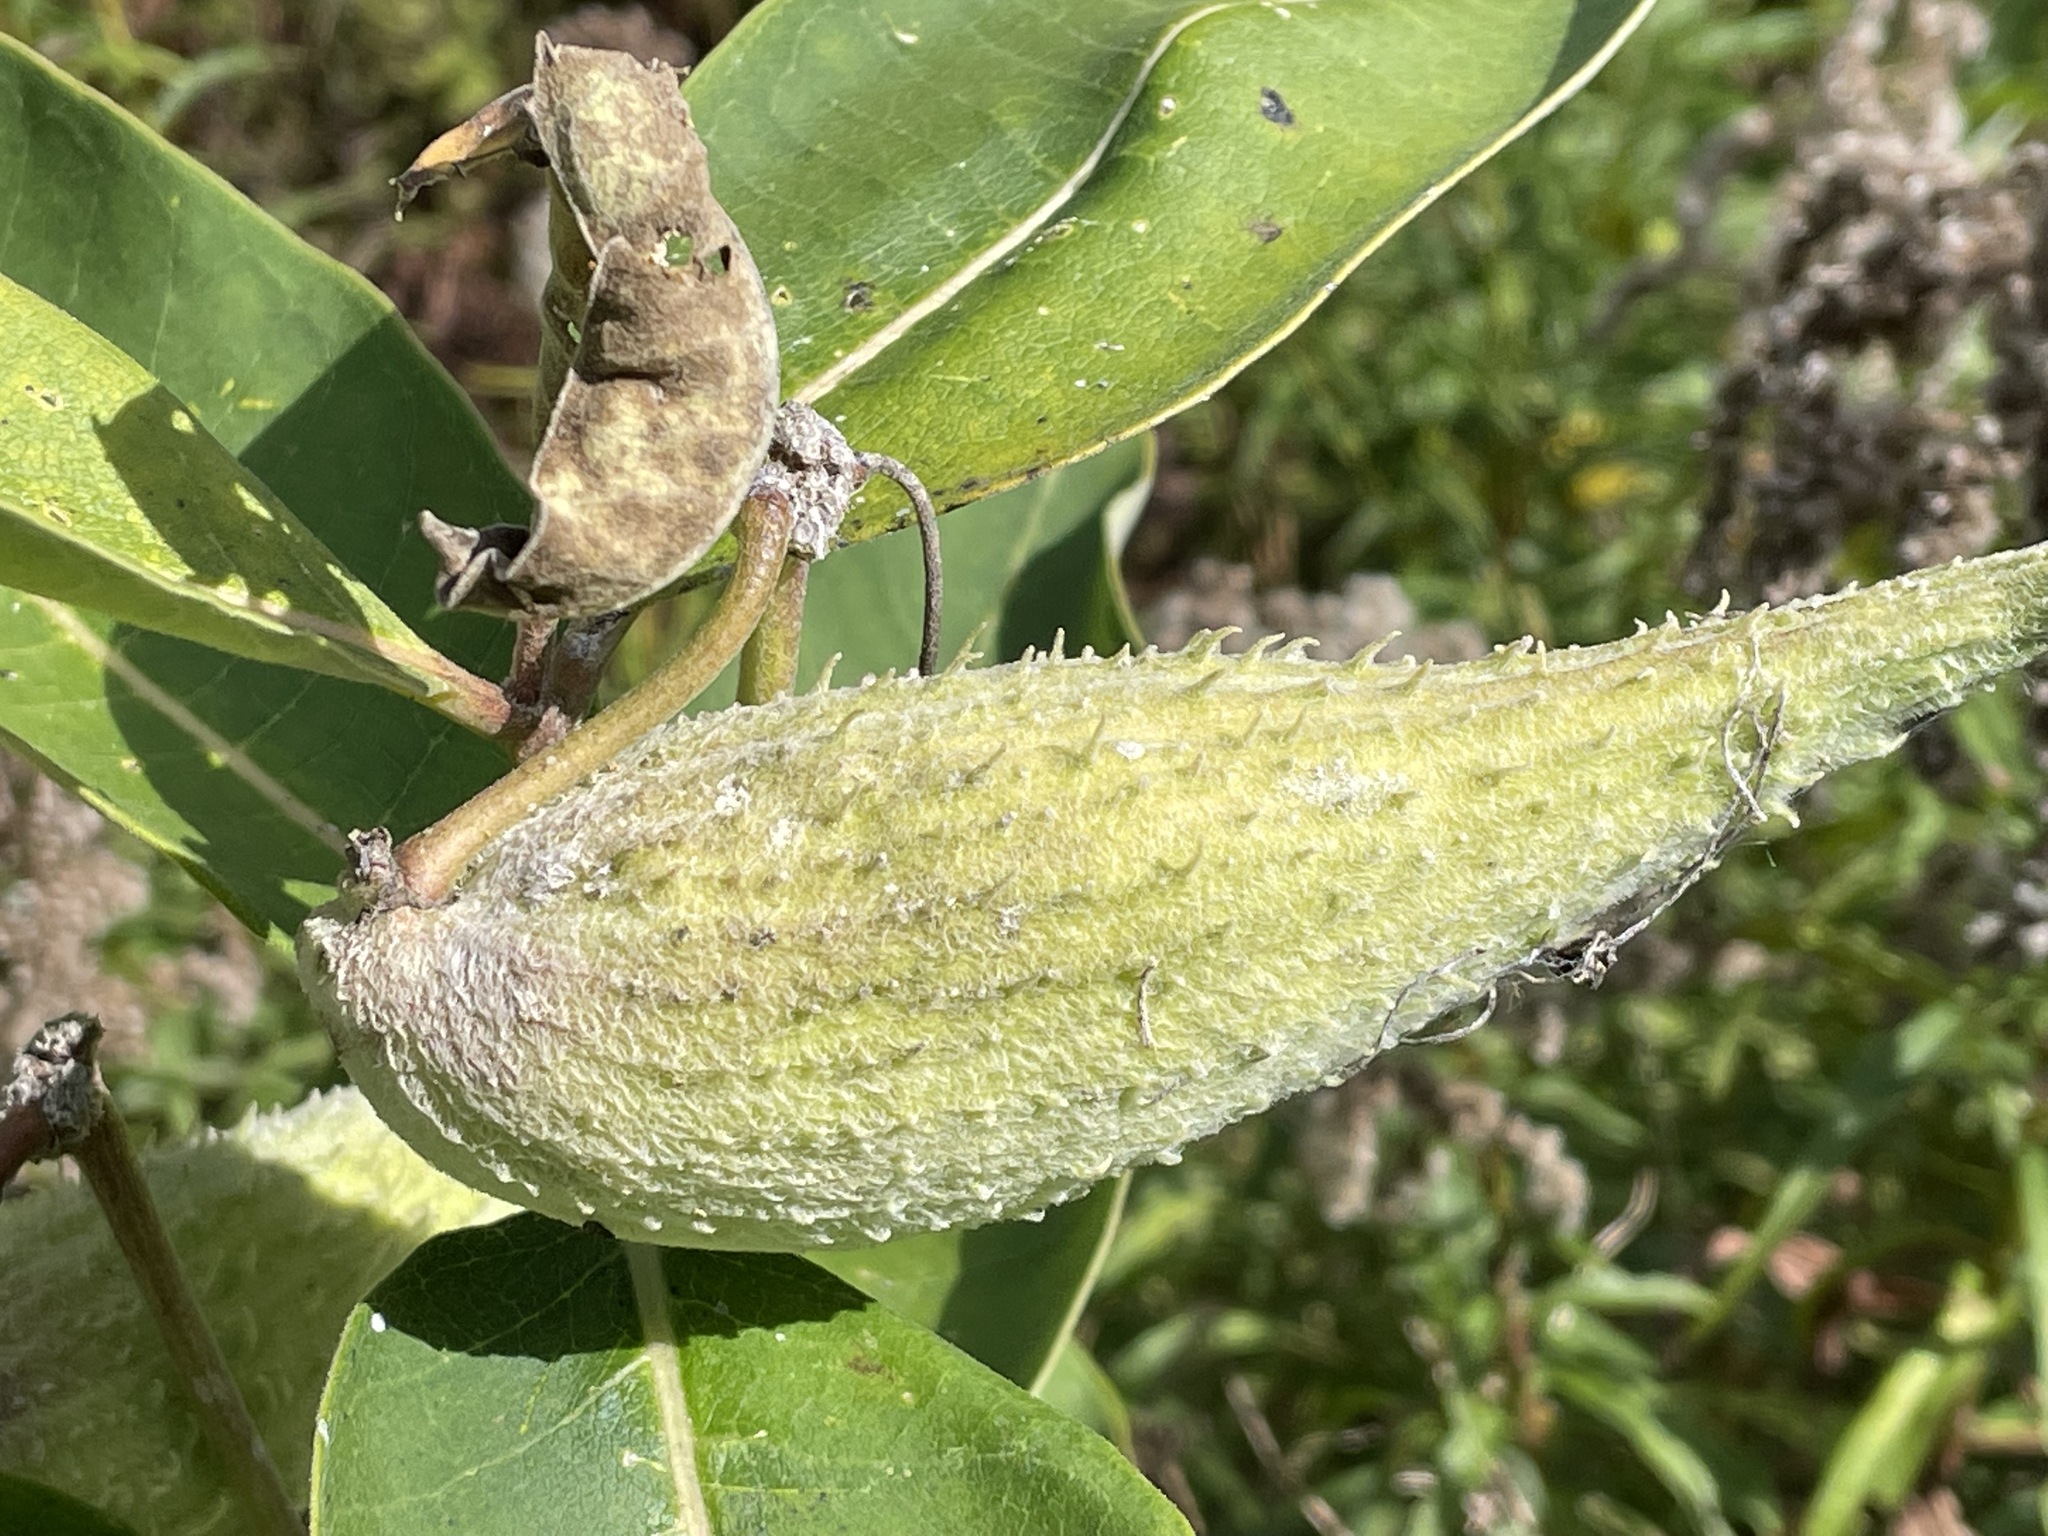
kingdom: Plantae
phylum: Tracheophyta
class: Magnoliopsida
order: Gentianales
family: Apocynaceae
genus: Asclepias
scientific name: Asclepias syriaca
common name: Common milkweed
